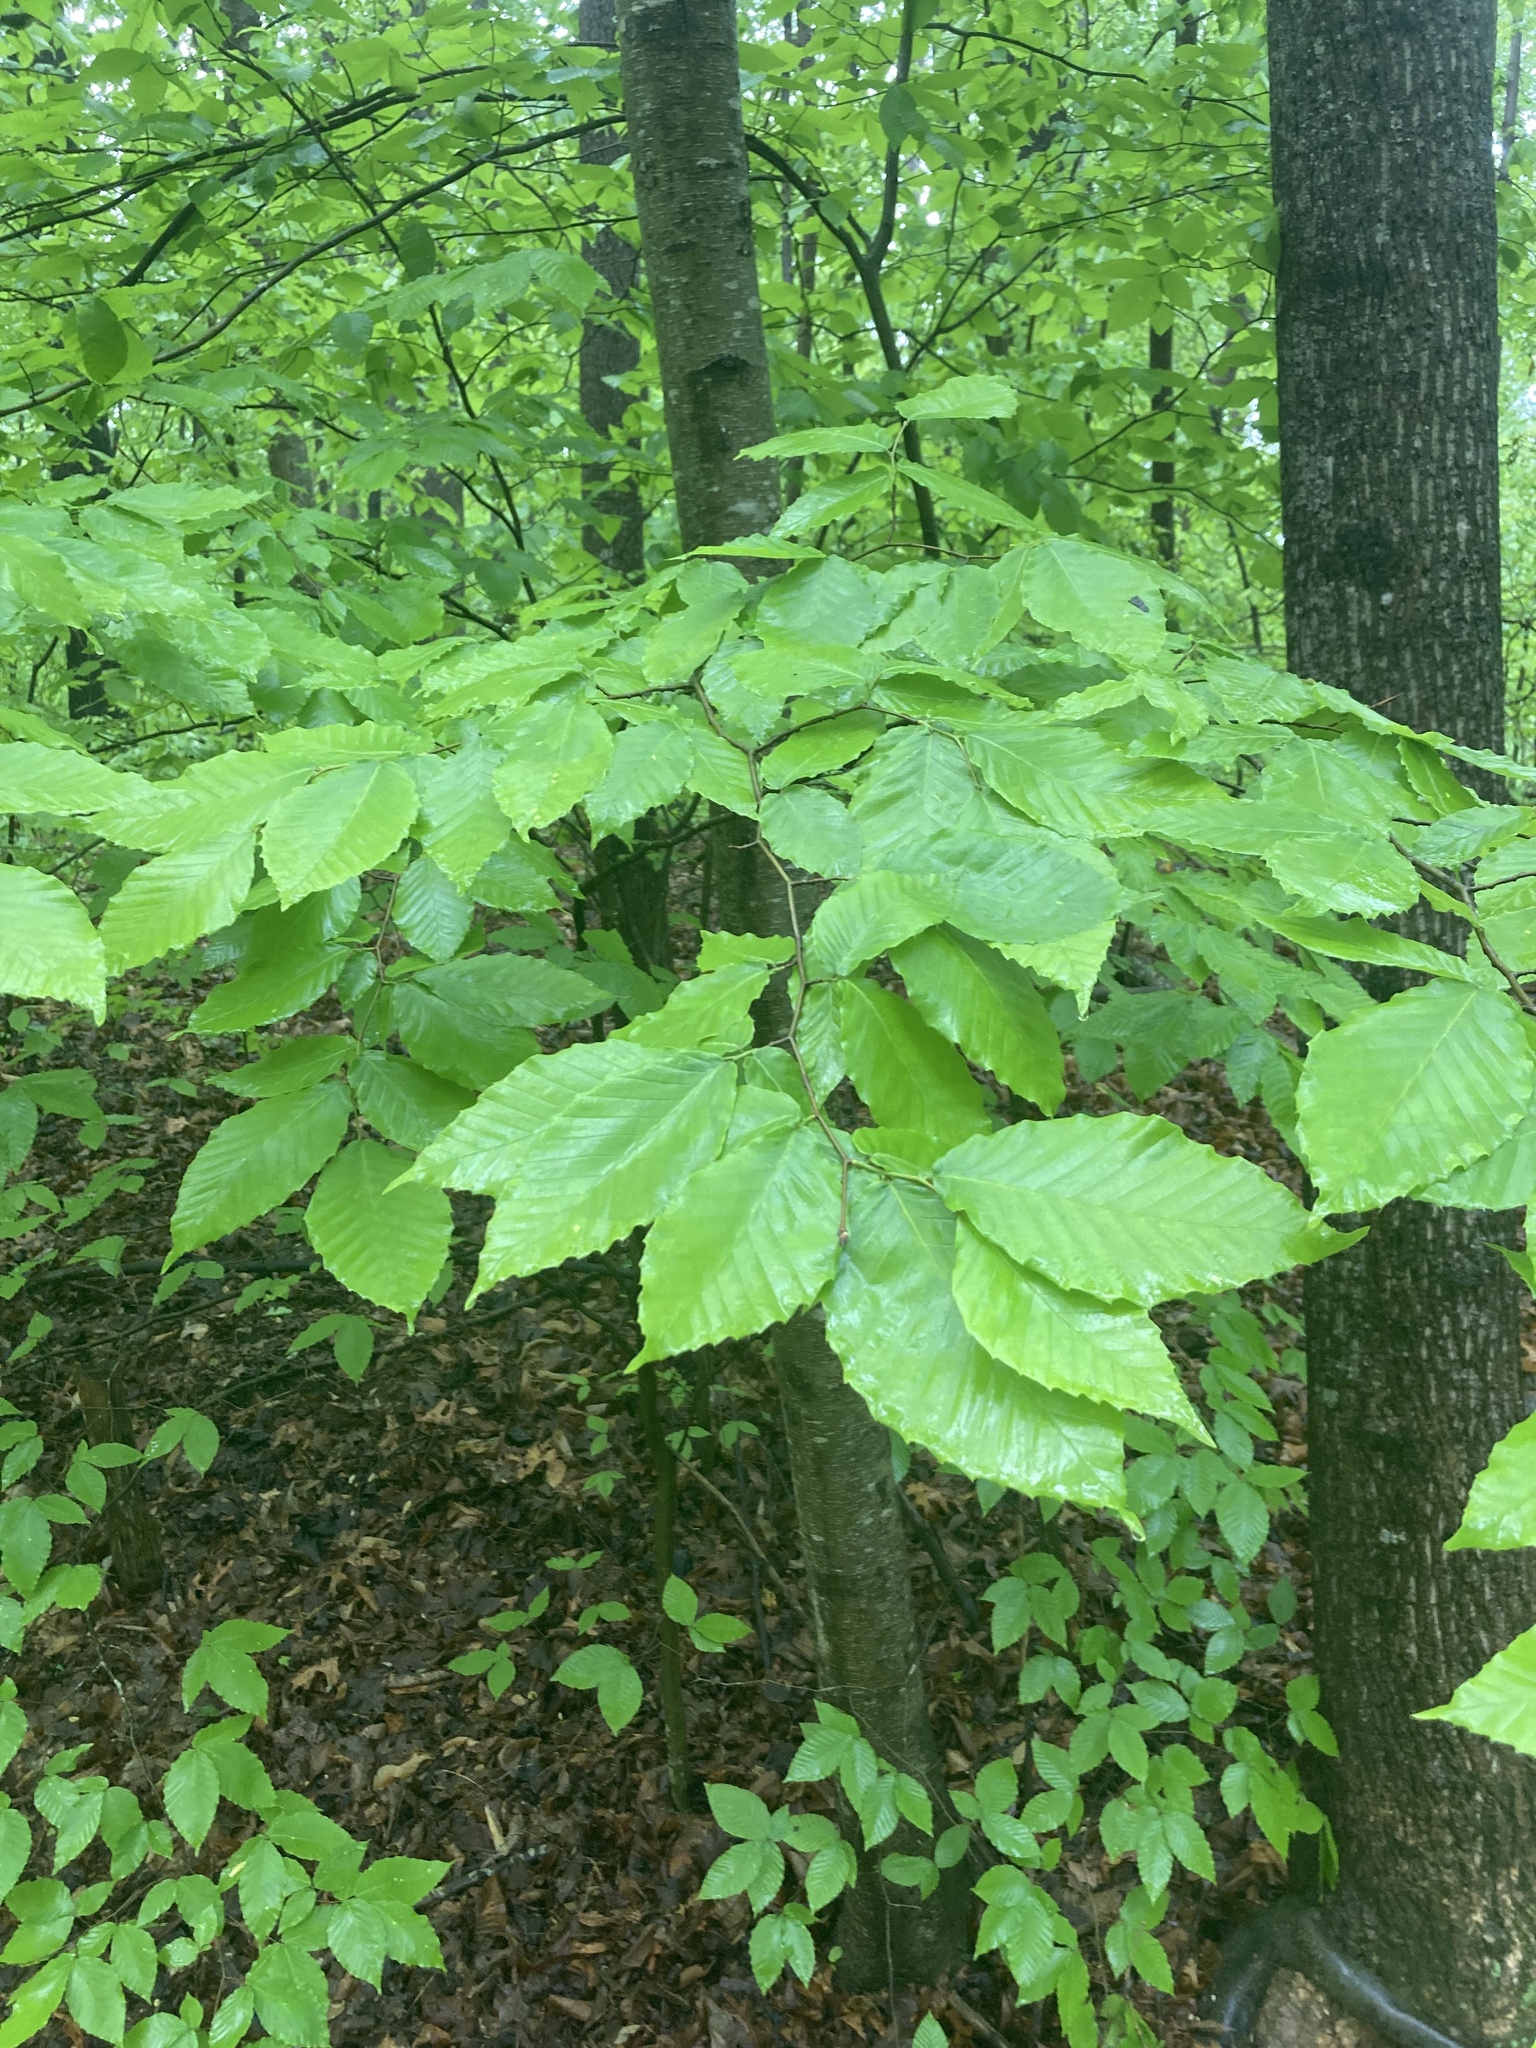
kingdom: Plantae
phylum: Tracheophyta
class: Magnoliopsida
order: Fagales
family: Fagaceae
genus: Fagus
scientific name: Fagus grandifolia
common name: American beech
